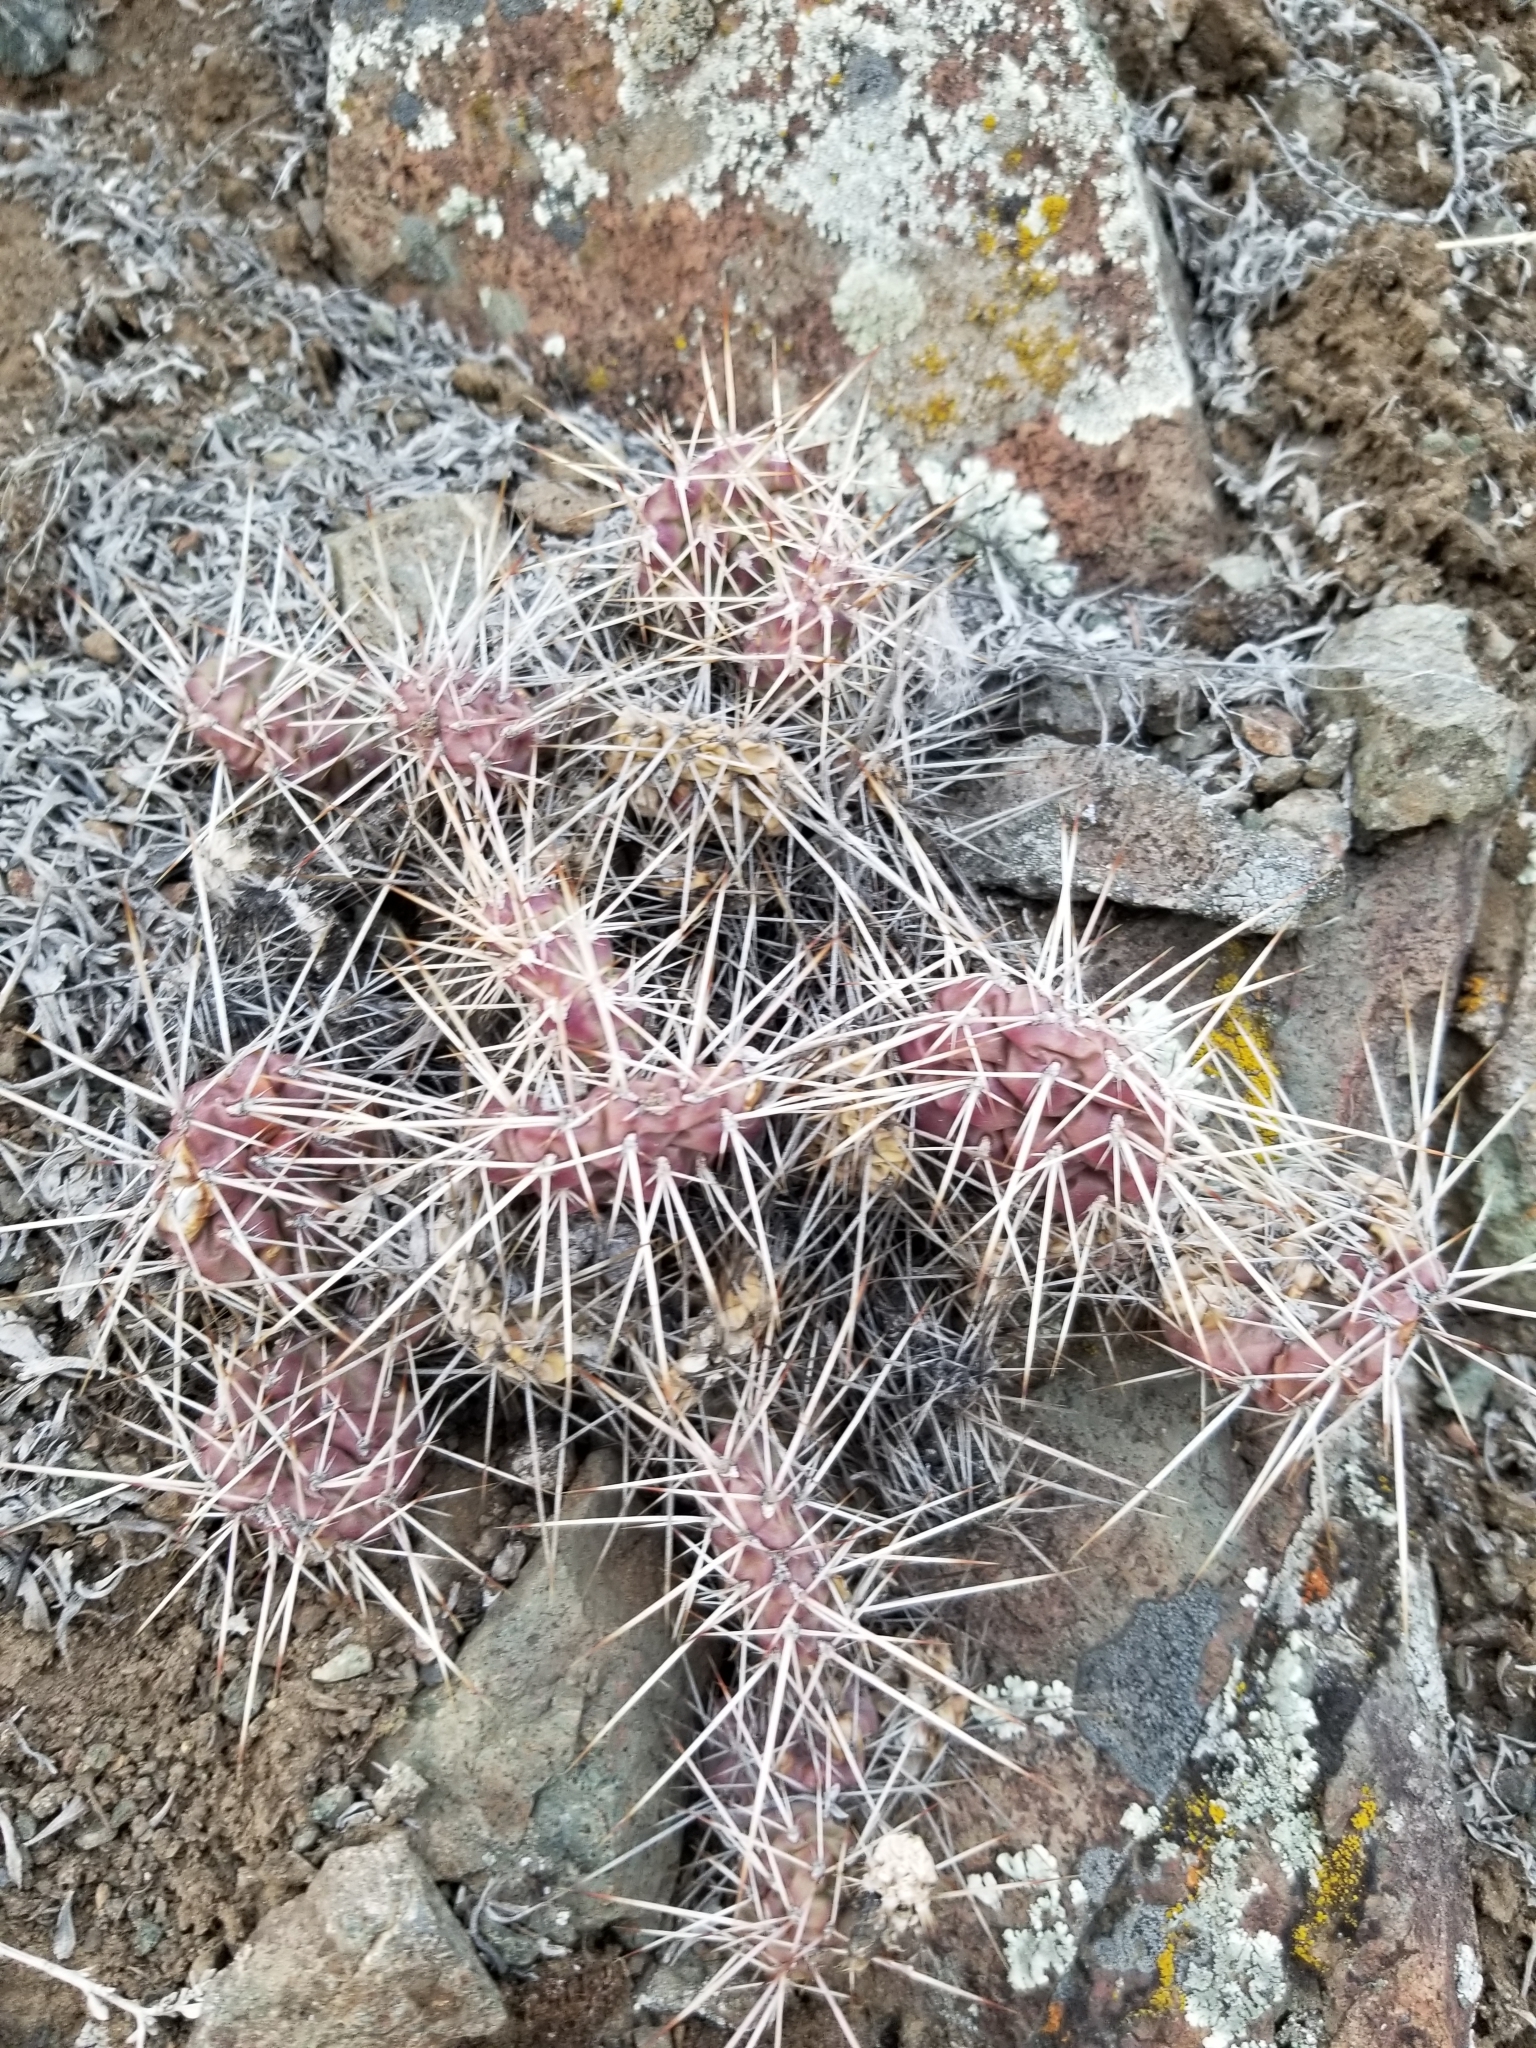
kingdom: Plantae
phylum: Tracheophyta
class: Magnoliopsida
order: Caryophyllales
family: Cactaceae
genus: Opuntia
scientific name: Opuntia fragilis
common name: Brittle cactus
